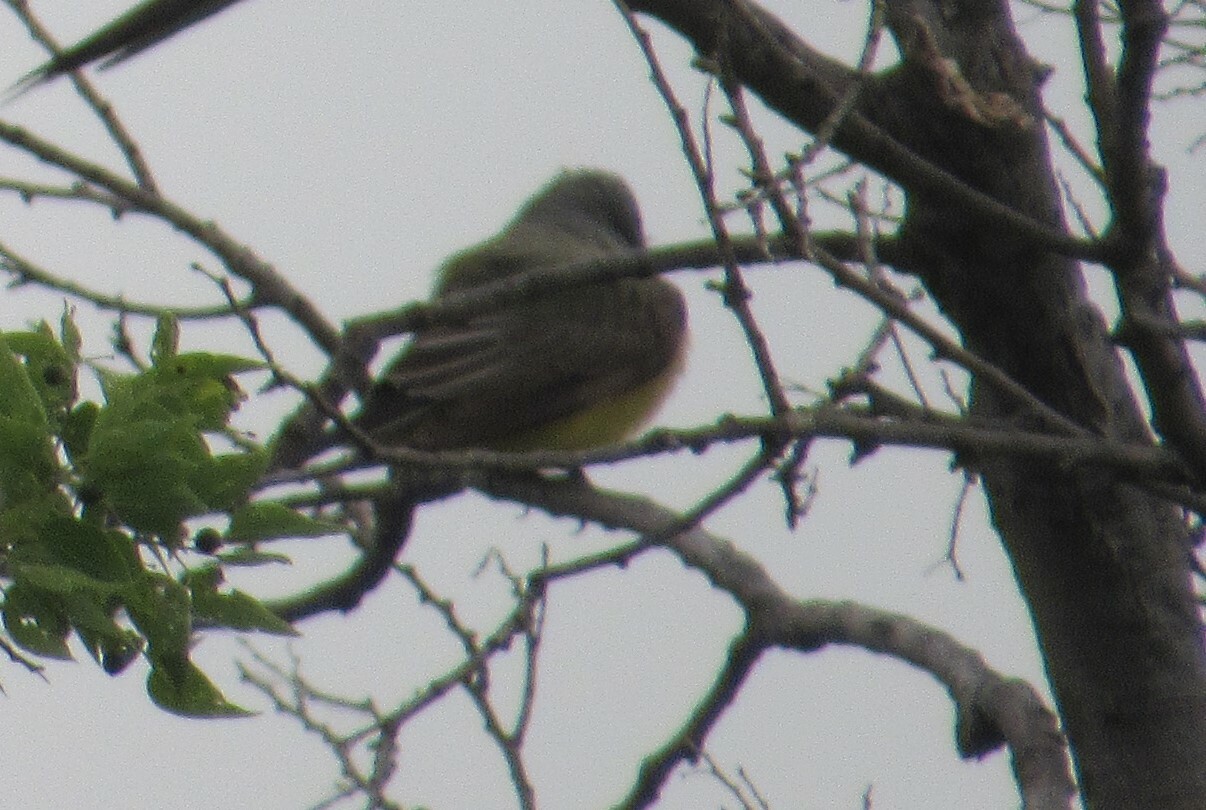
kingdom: Animalia
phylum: Chordata
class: Aves
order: Passeriformes
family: Tyrannidae
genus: Tyrannus
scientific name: Tyrannus verticalis
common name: Western kingbird
